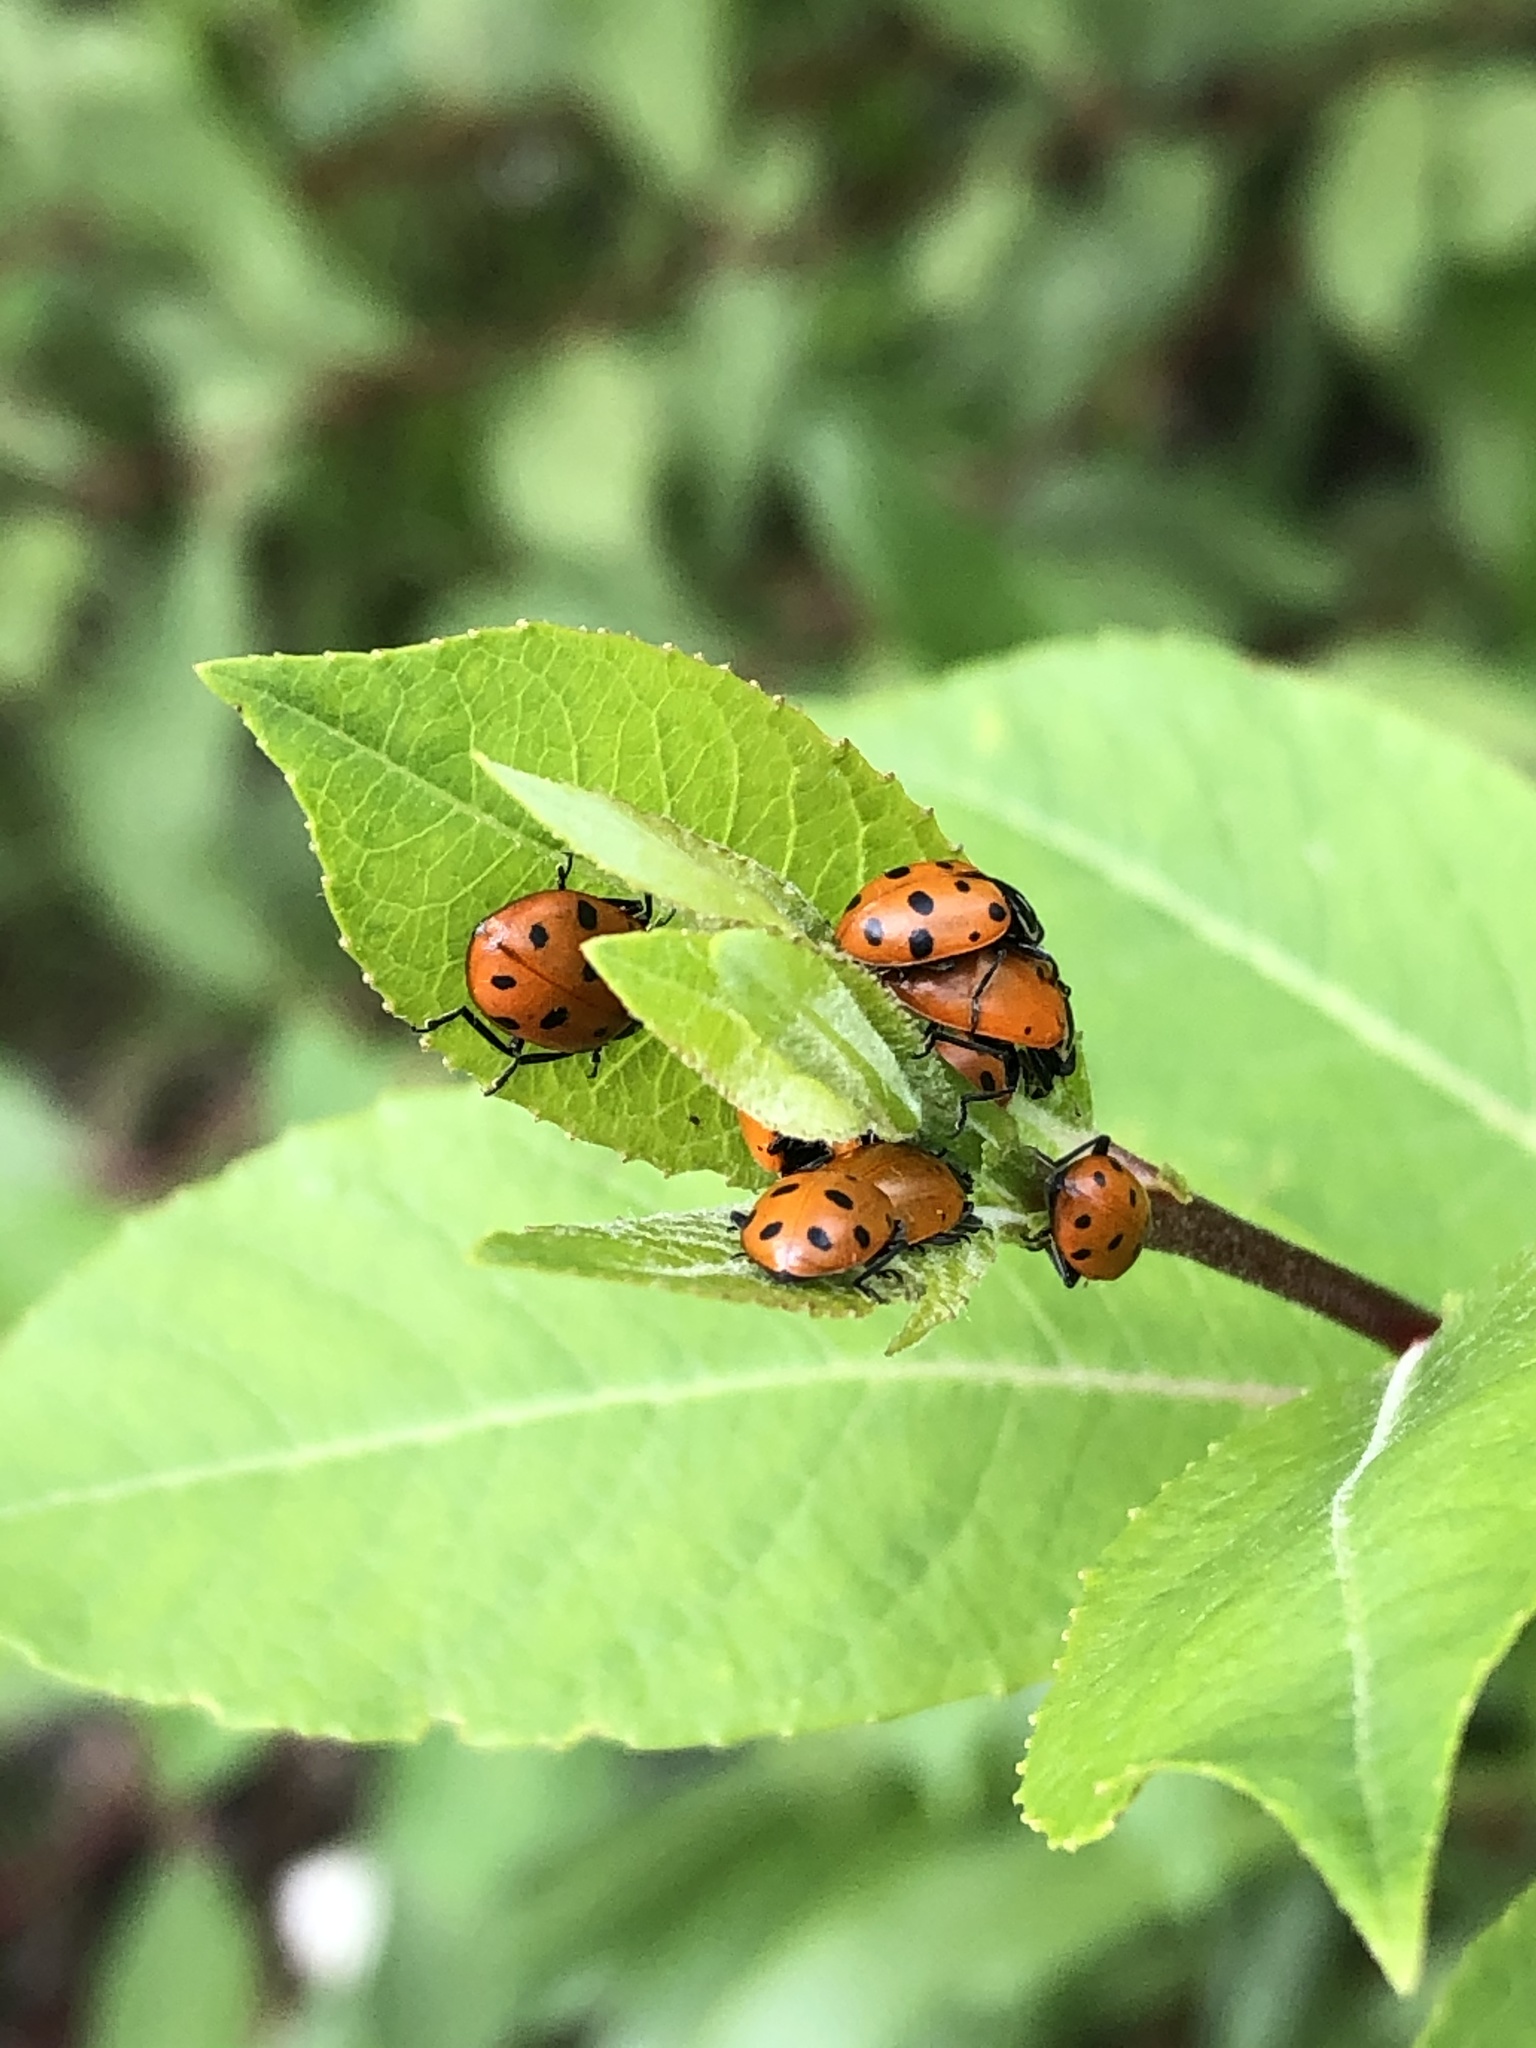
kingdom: Animalia
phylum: Arthropoda
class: Insecta
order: Coleoptera
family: Coccinellidae
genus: Hippodamia
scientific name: Hippodamia convergens
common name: Convergent lady beetle
